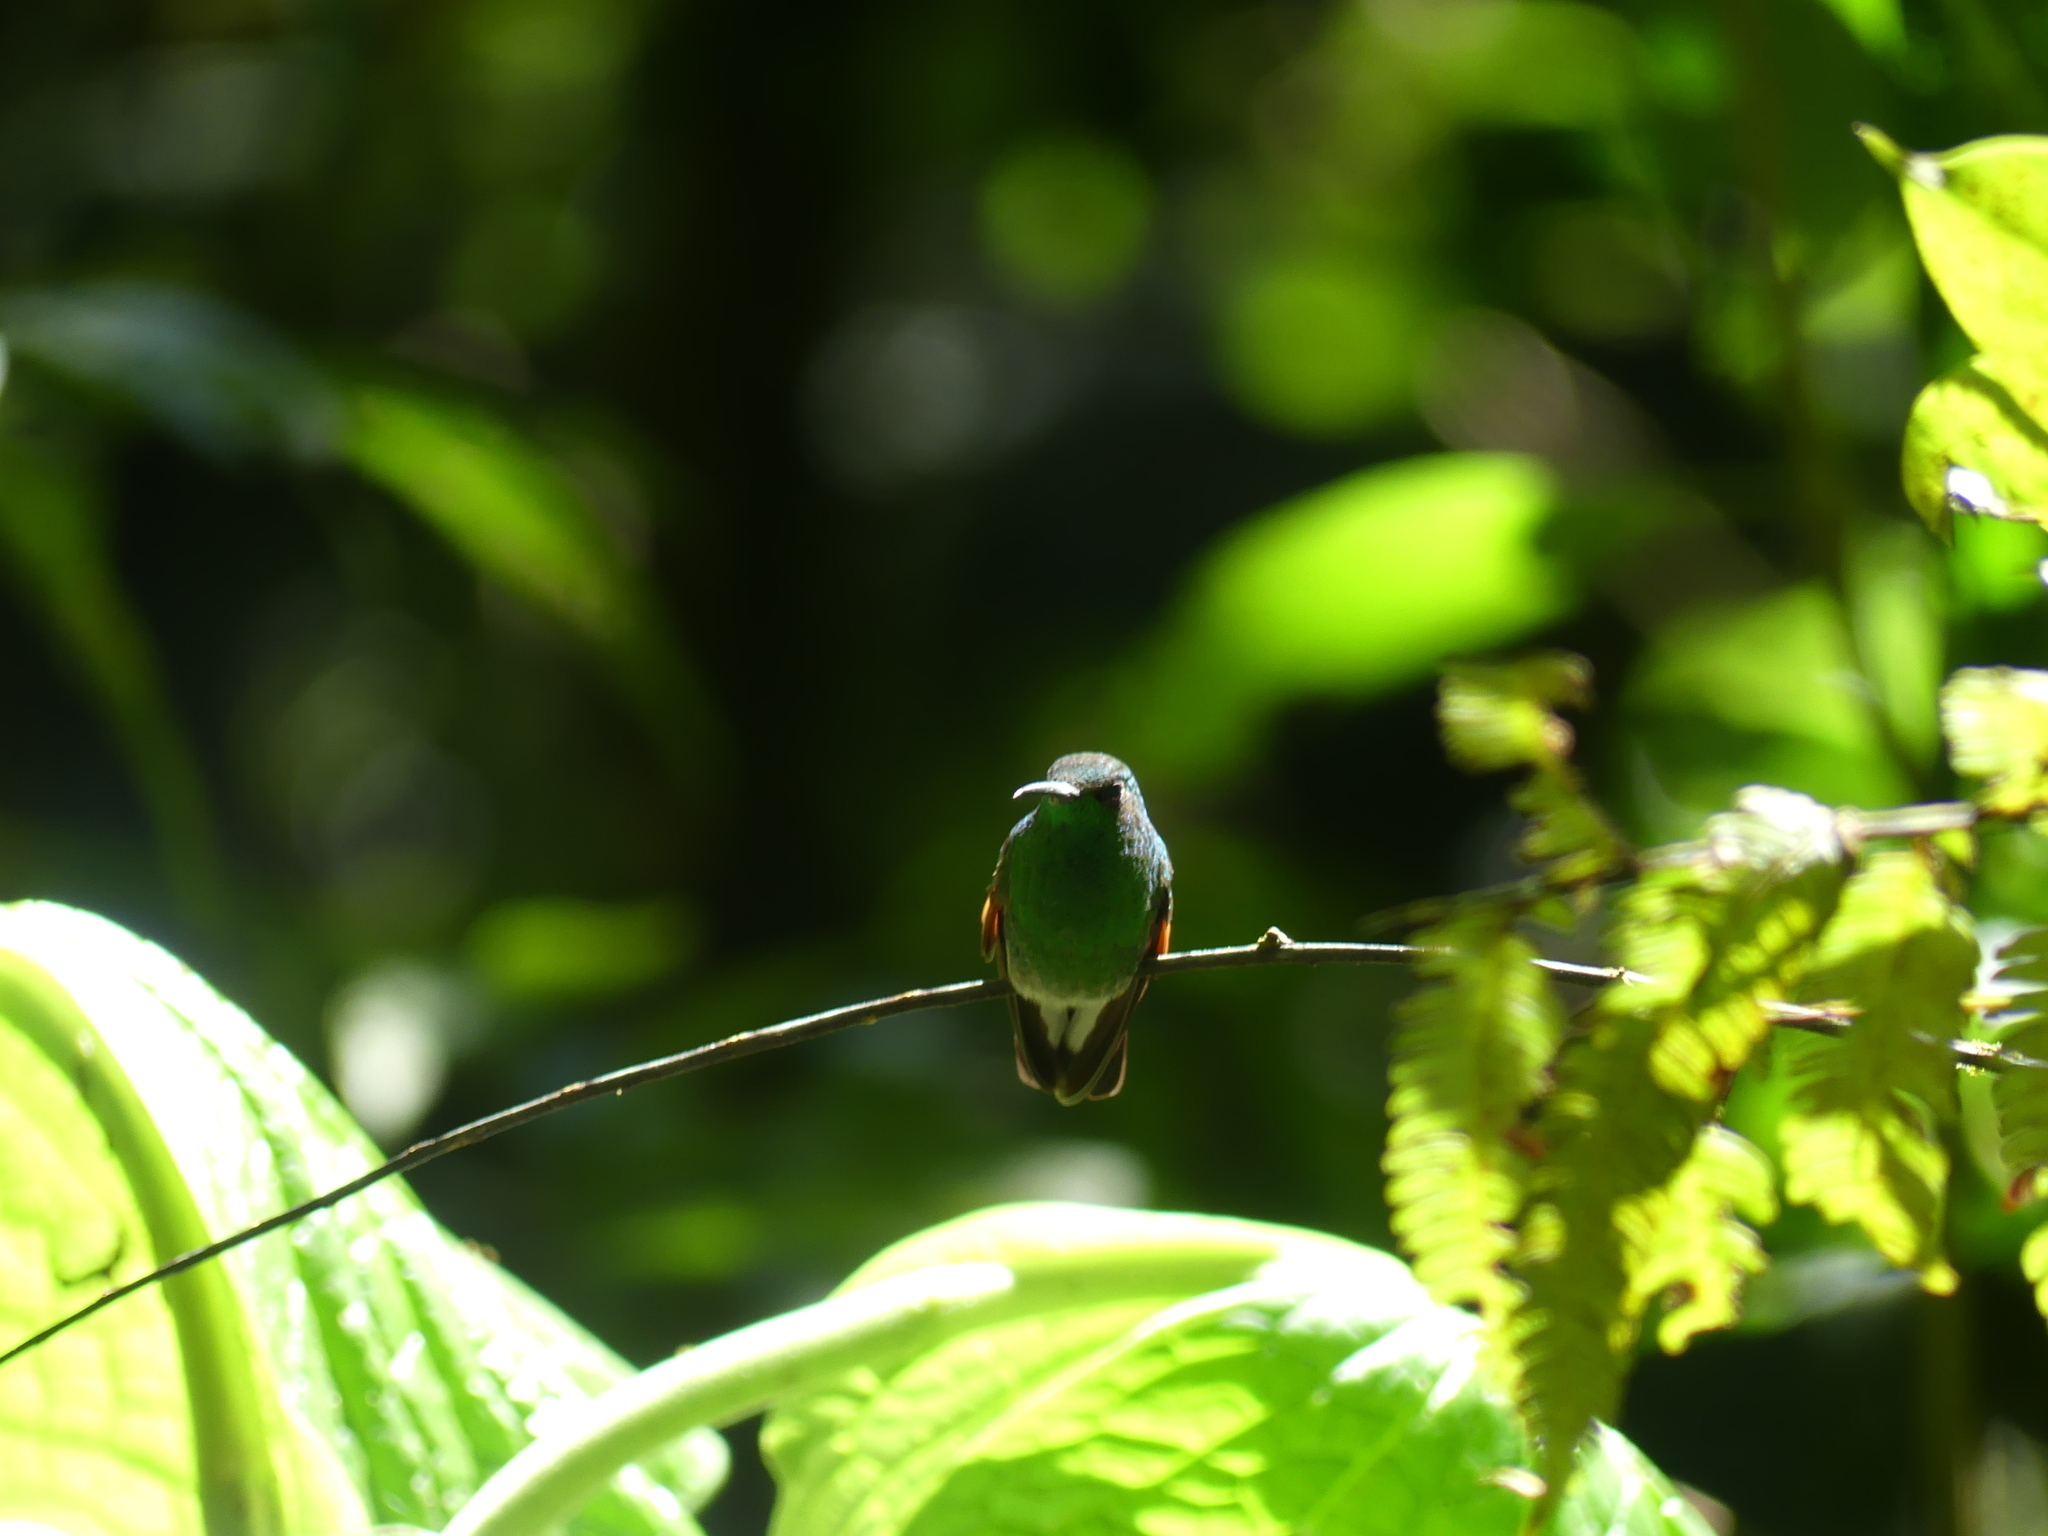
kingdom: Animalia
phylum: Chordata
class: Aves
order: Apodiformes
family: Trochilidae
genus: Eupherusa
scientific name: Eupherusa eximia
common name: Stripe-tailed hummingbird
